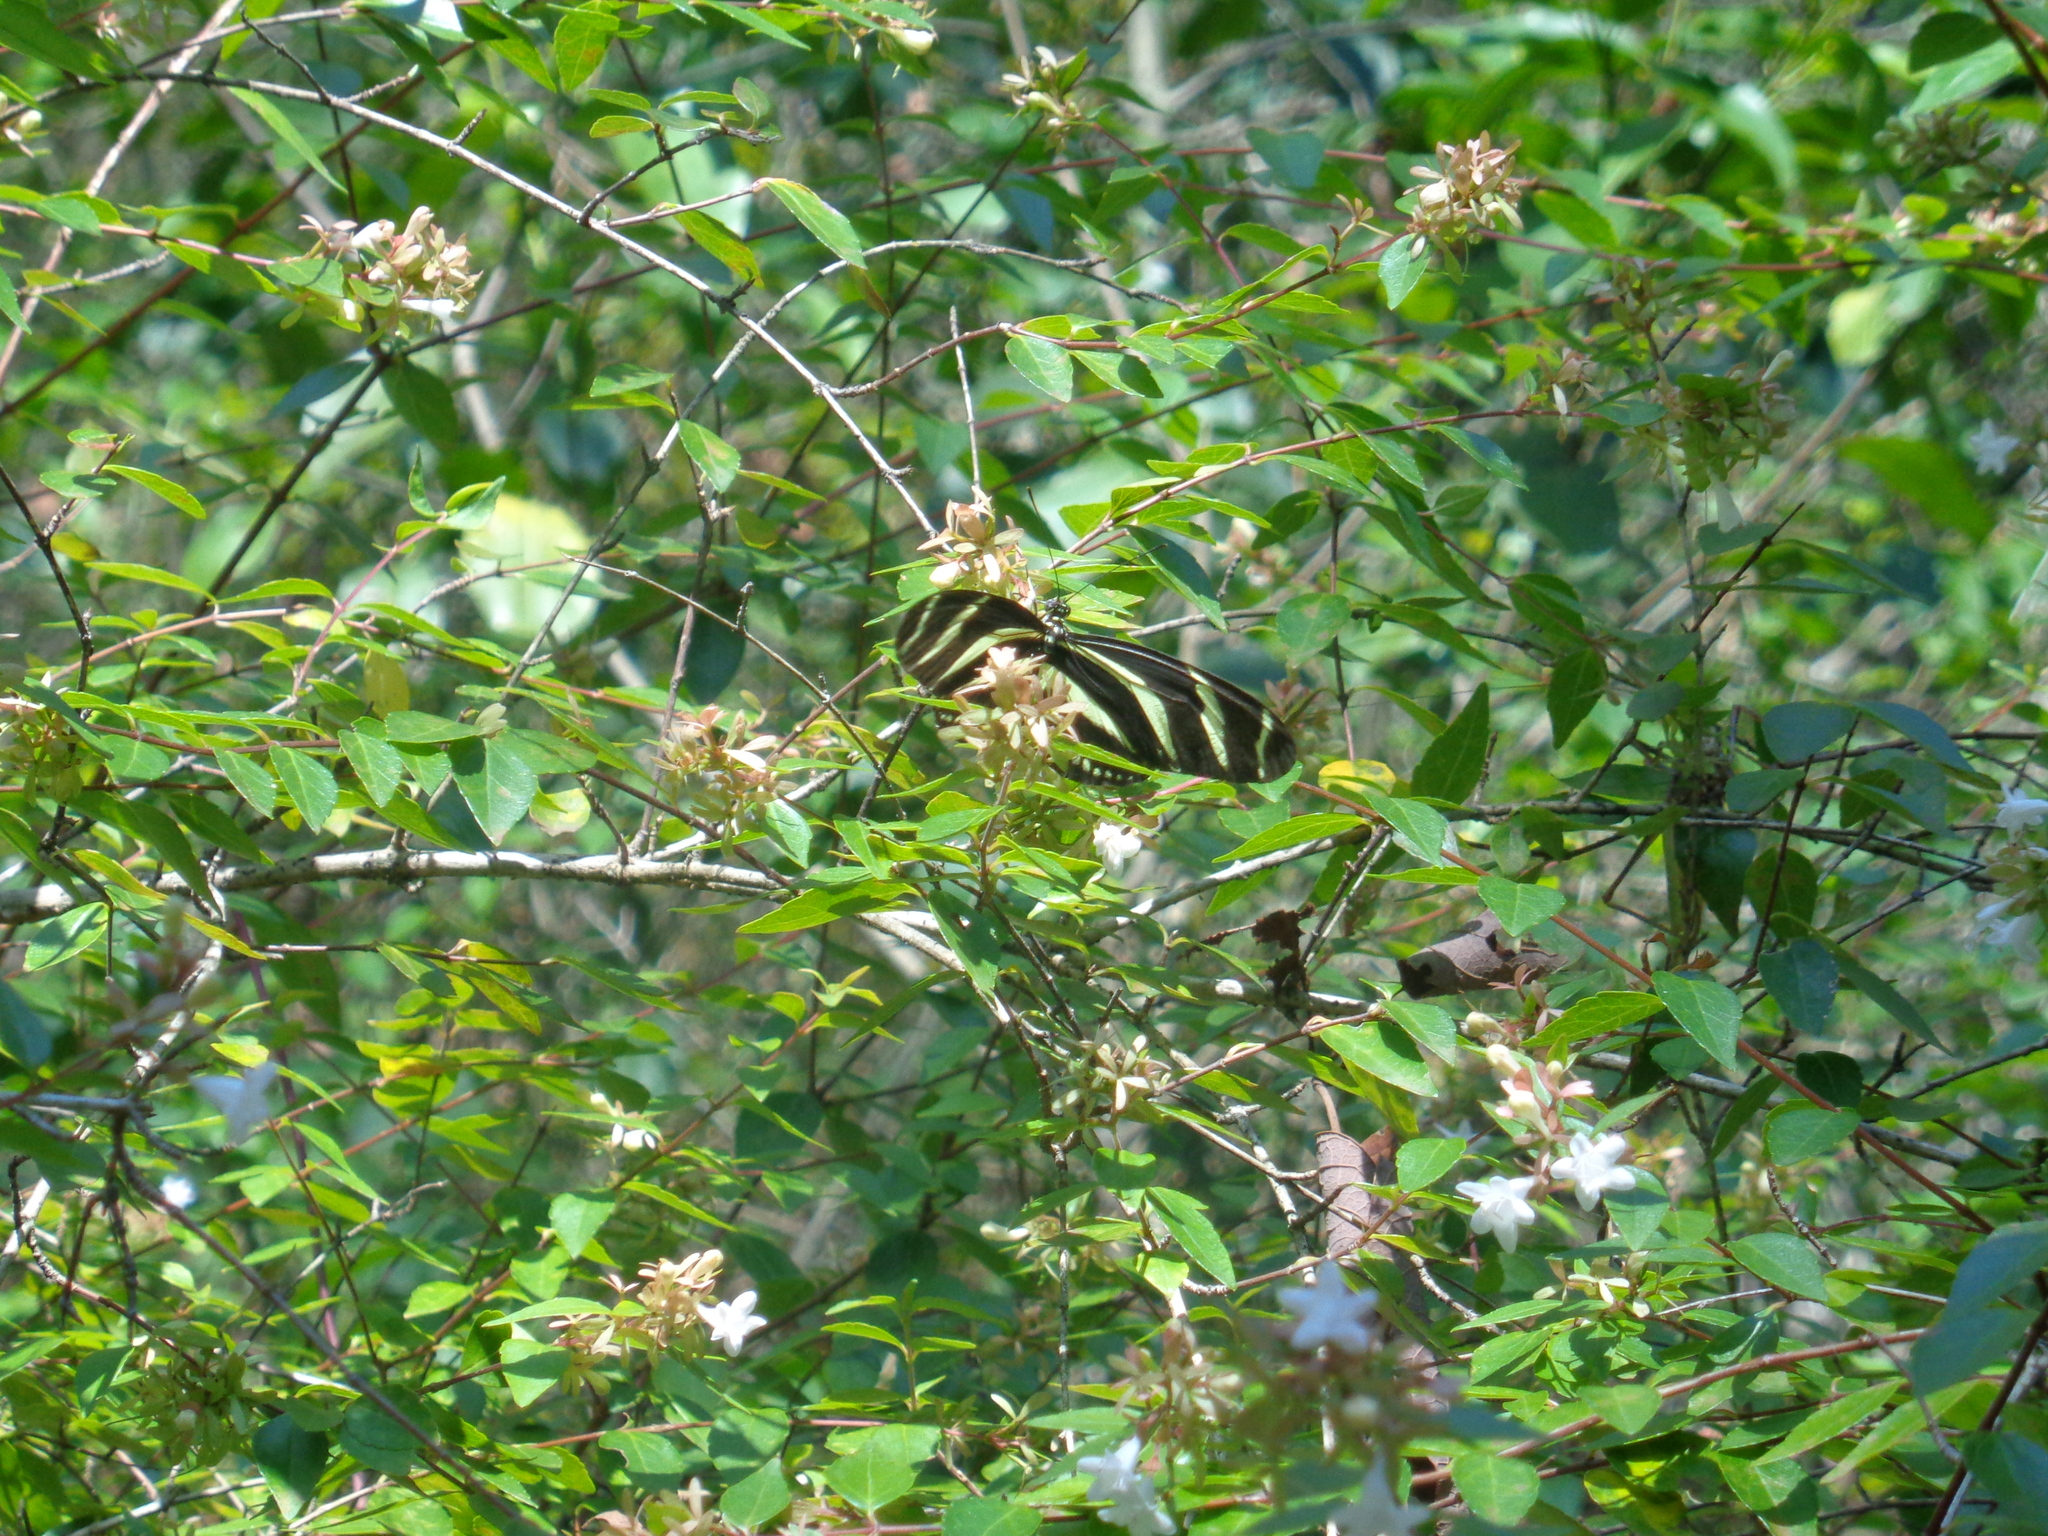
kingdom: Animalia
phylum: Arthropoda
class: Insecta
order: Lepidoptera
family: Nymphalidae
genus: Heliconius
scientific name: Heliconius charithonia
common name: Zebra long wing
